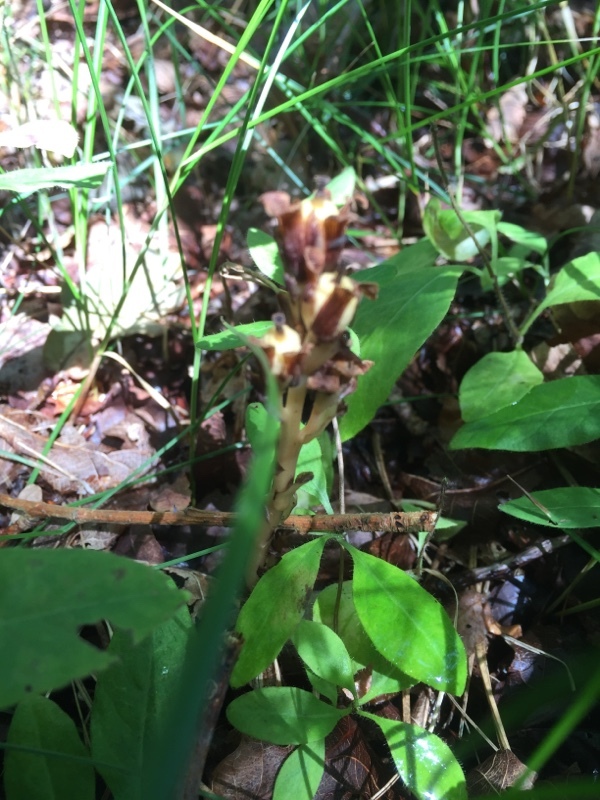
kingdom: Plantae
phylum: Tracheophyta
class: Magnoliopsida
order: Ericales
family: Ericaceae
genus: Hypopitys
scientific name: Hypopitys monotropa
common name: Yellow bird's-nest
